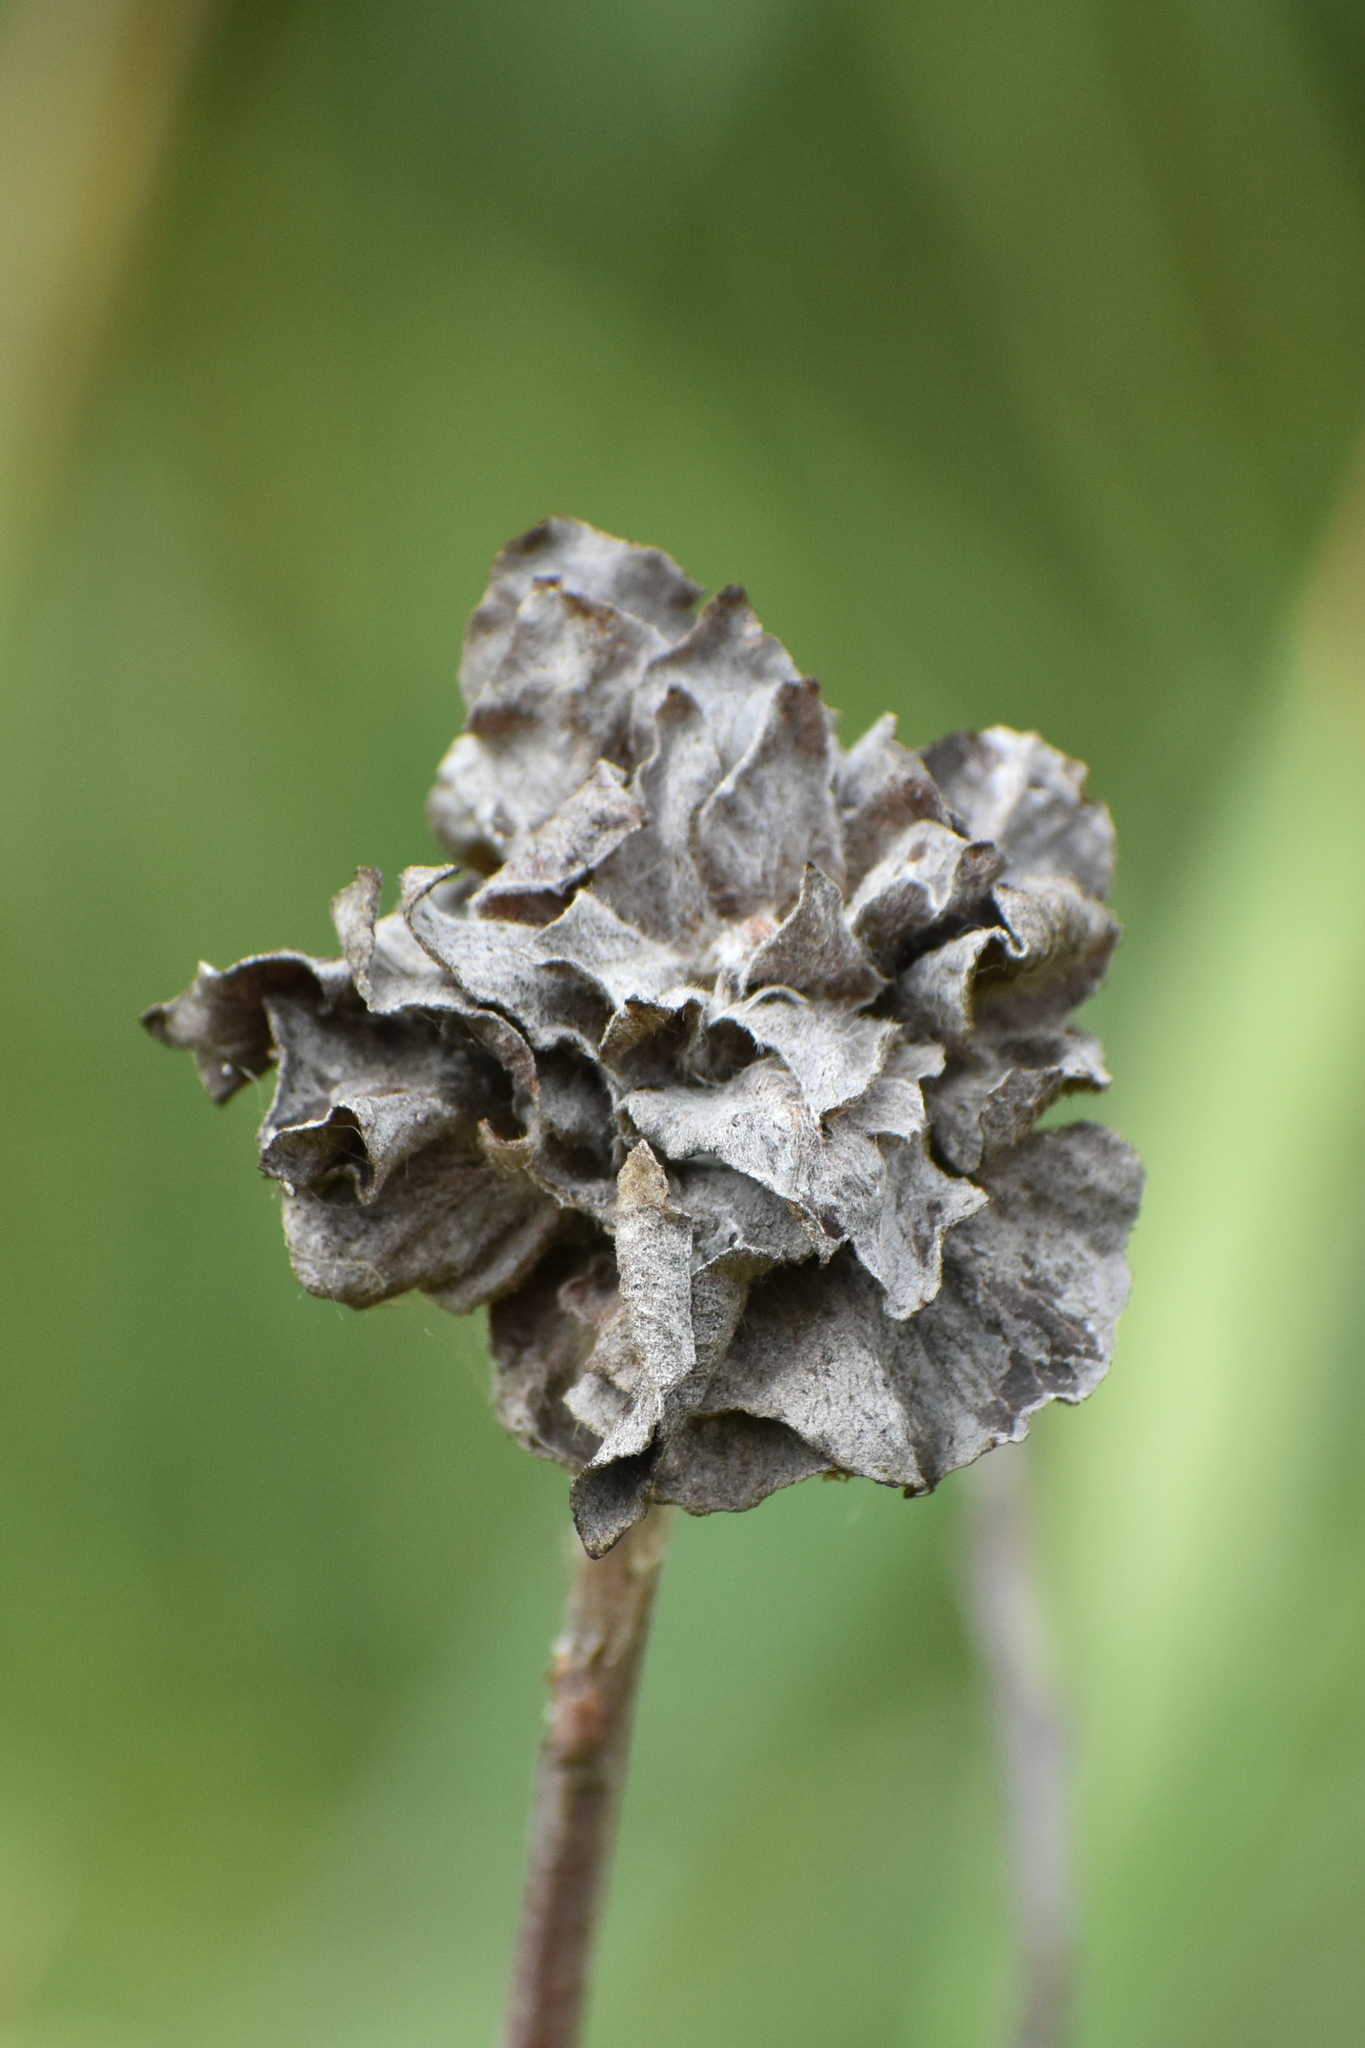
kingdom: Animalia
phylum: Arthropoda
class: Insecta
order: Diptera
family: Cecidomyiidae
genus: Rabdophaga
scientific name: Rabdophaga rosaria
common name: Willow rose gall midge
